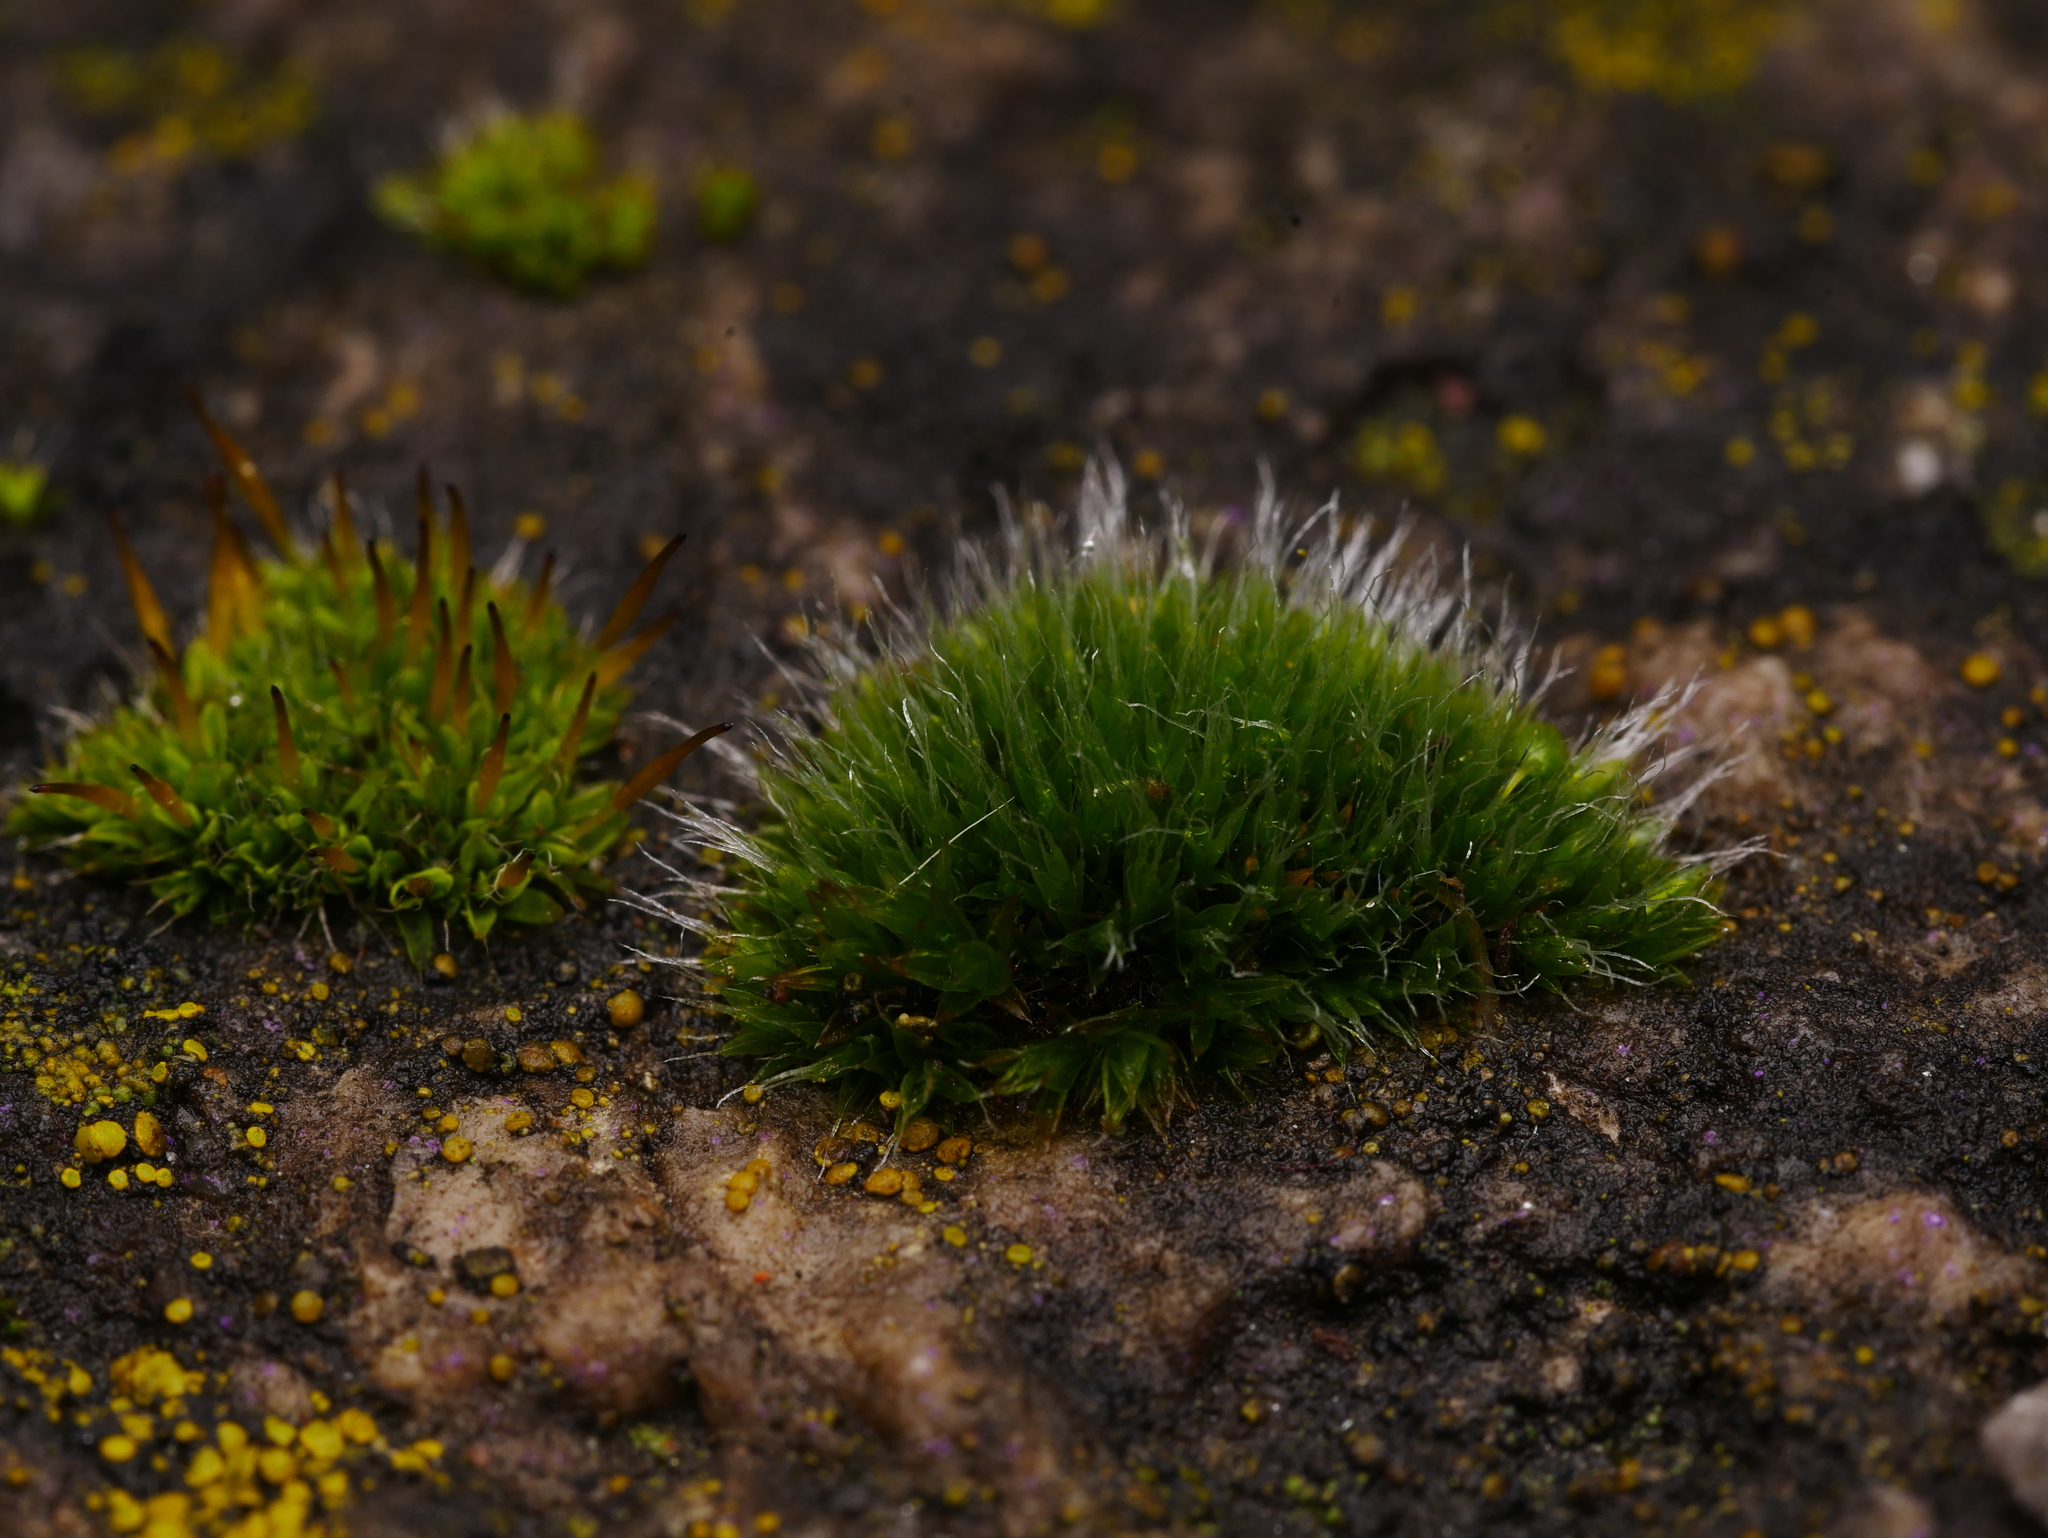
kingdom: Plantae
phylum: Bryophyta
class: Bryopsida
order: Grimmiales
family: Grimmiaceae
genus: Grimmia
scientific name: Grimmia pulvinata
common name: Grey-cushioned grimmia
